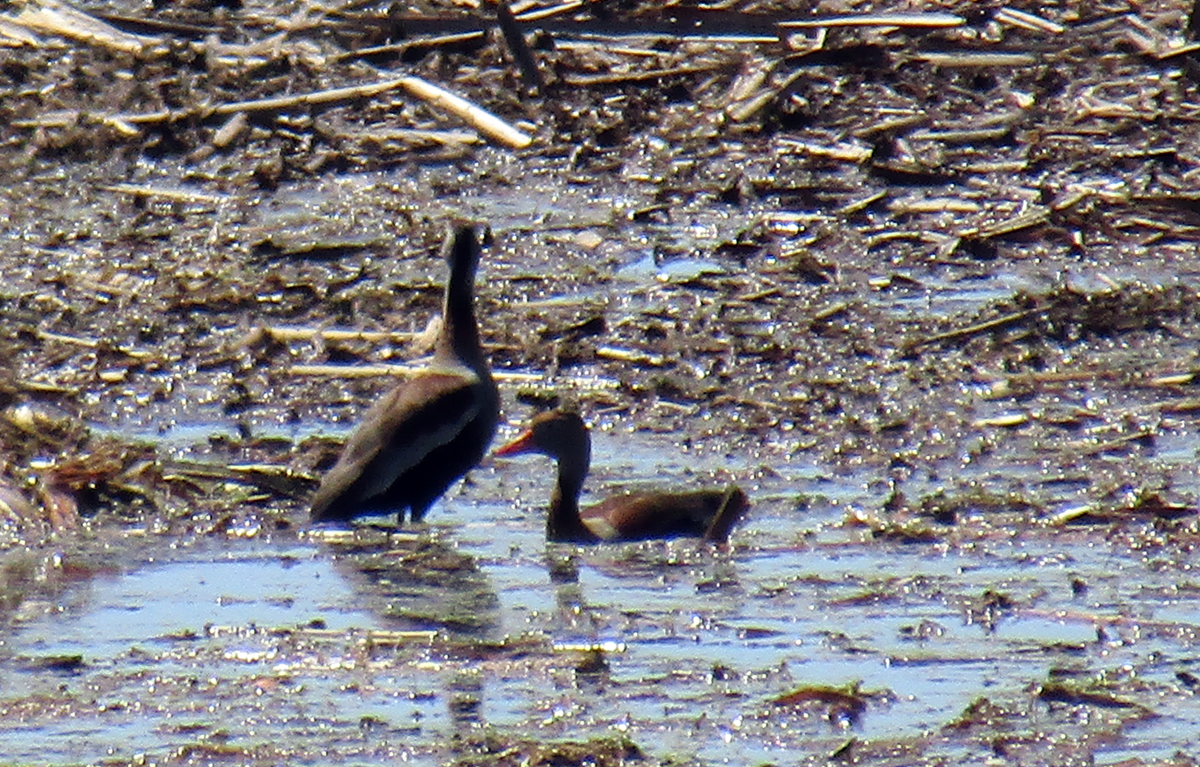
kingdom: Animalia
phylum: Chordata
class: Aves
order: Anseriformes
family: Anatidae
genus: Dendrocygna
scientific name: Dendrocygna autumnalis
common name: Black-bellied whistling duck
